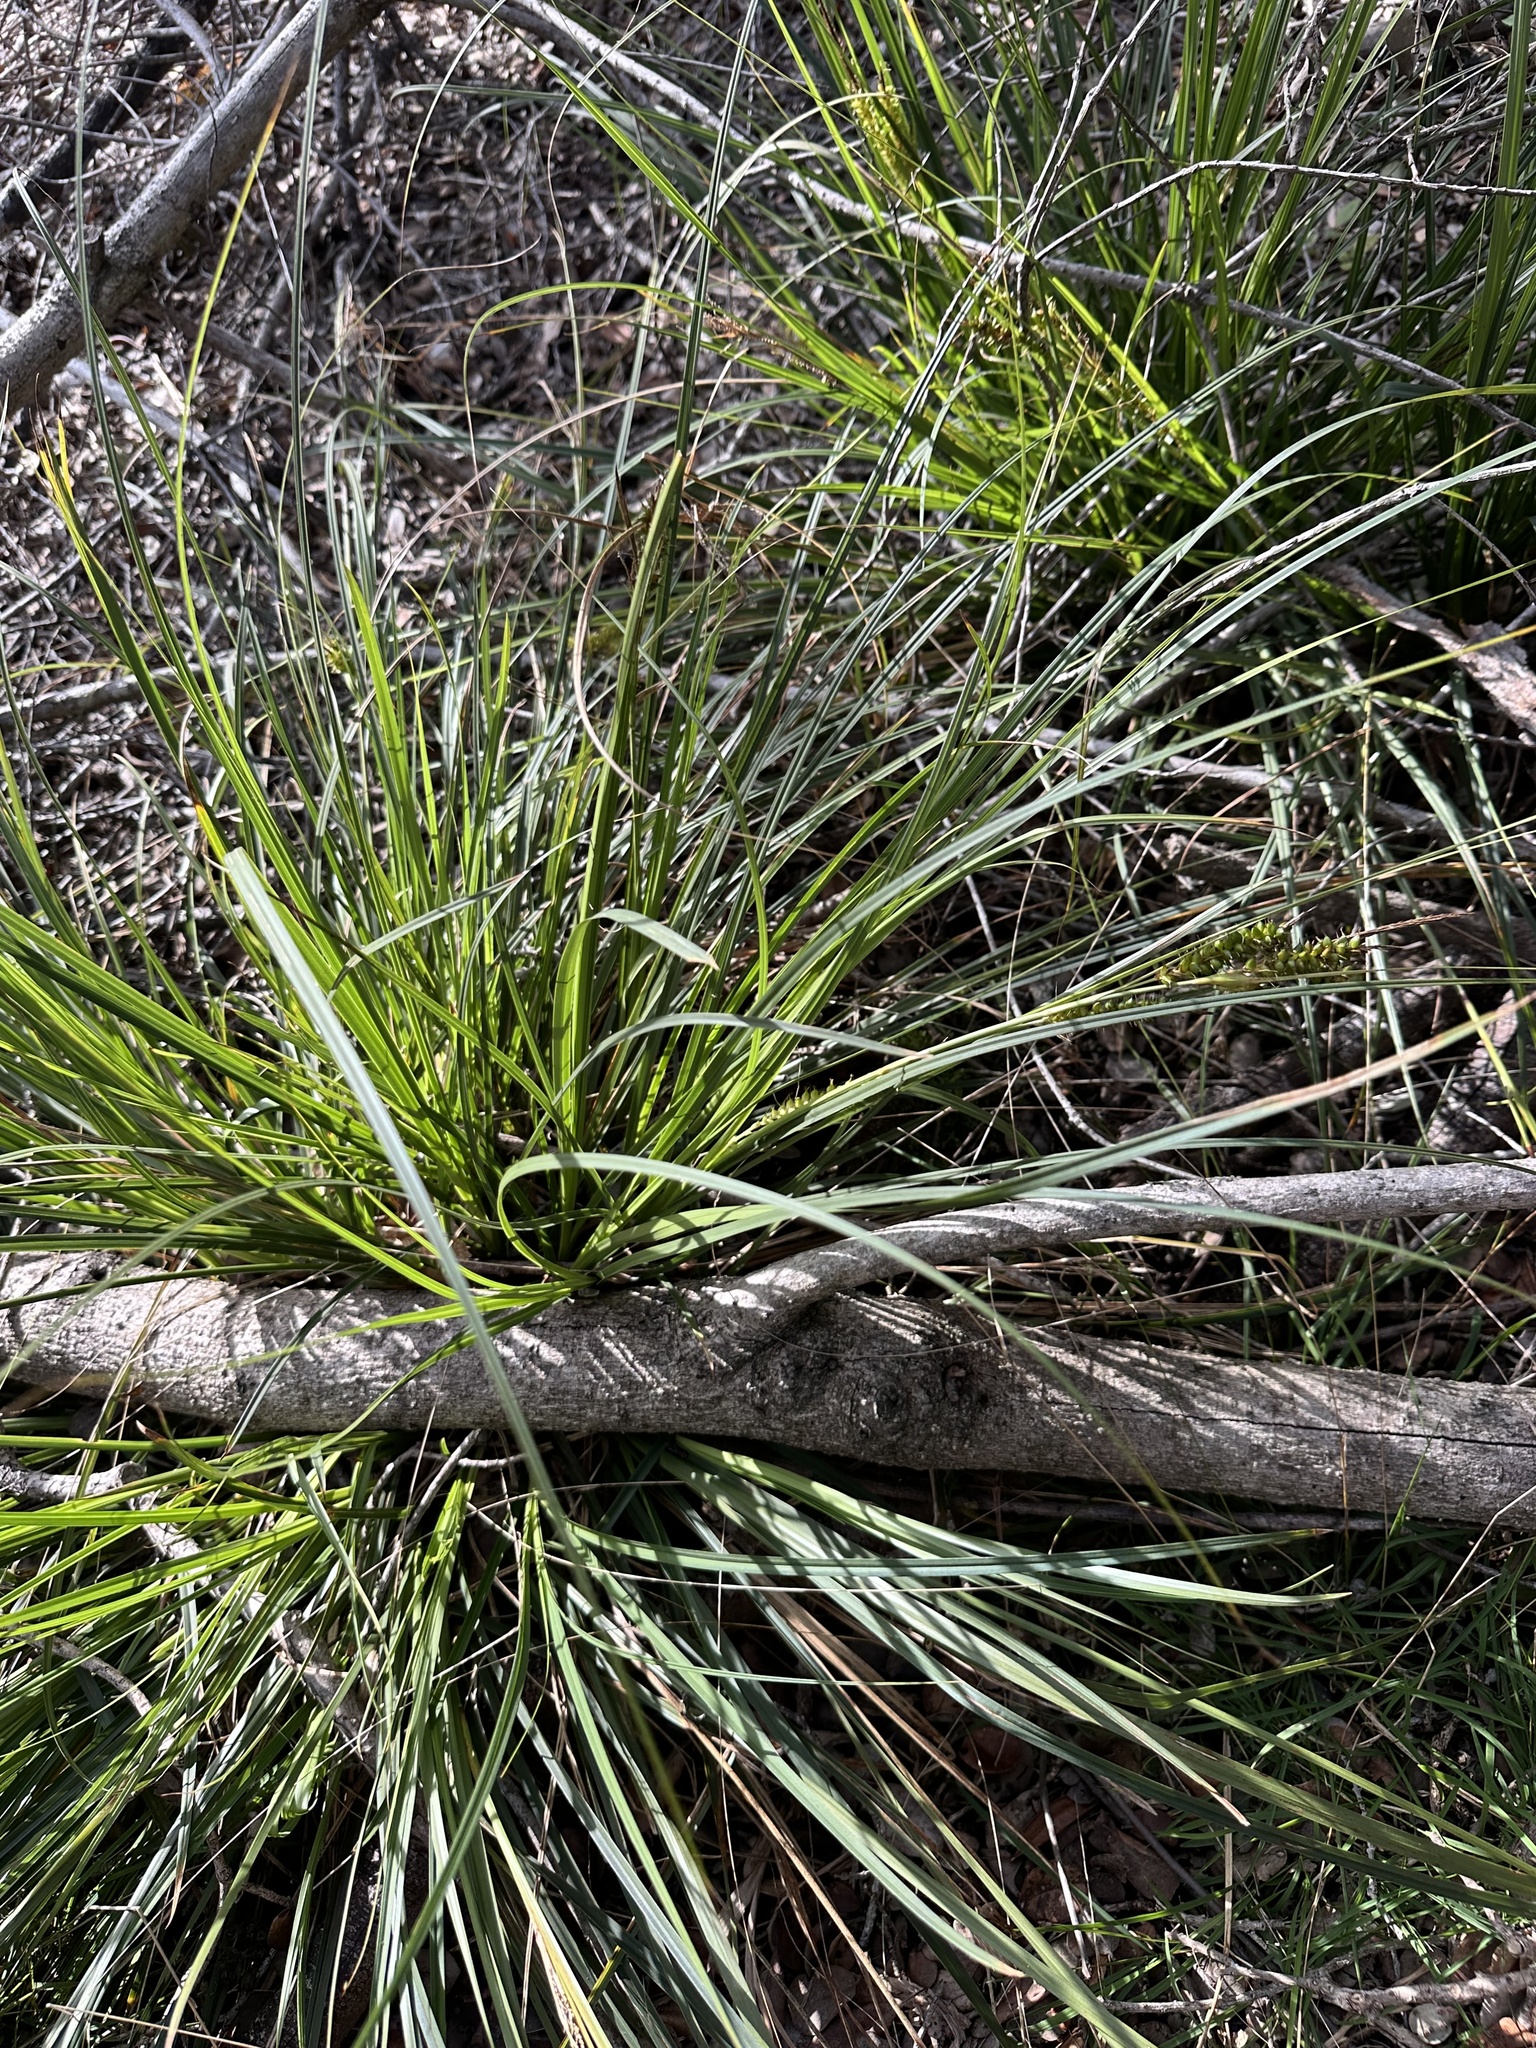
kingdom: Plantae
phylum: Tracheophyta
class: Liliopsida
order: Poales
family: Cyperaceae
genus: Carex
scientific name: Carex wahuensis
